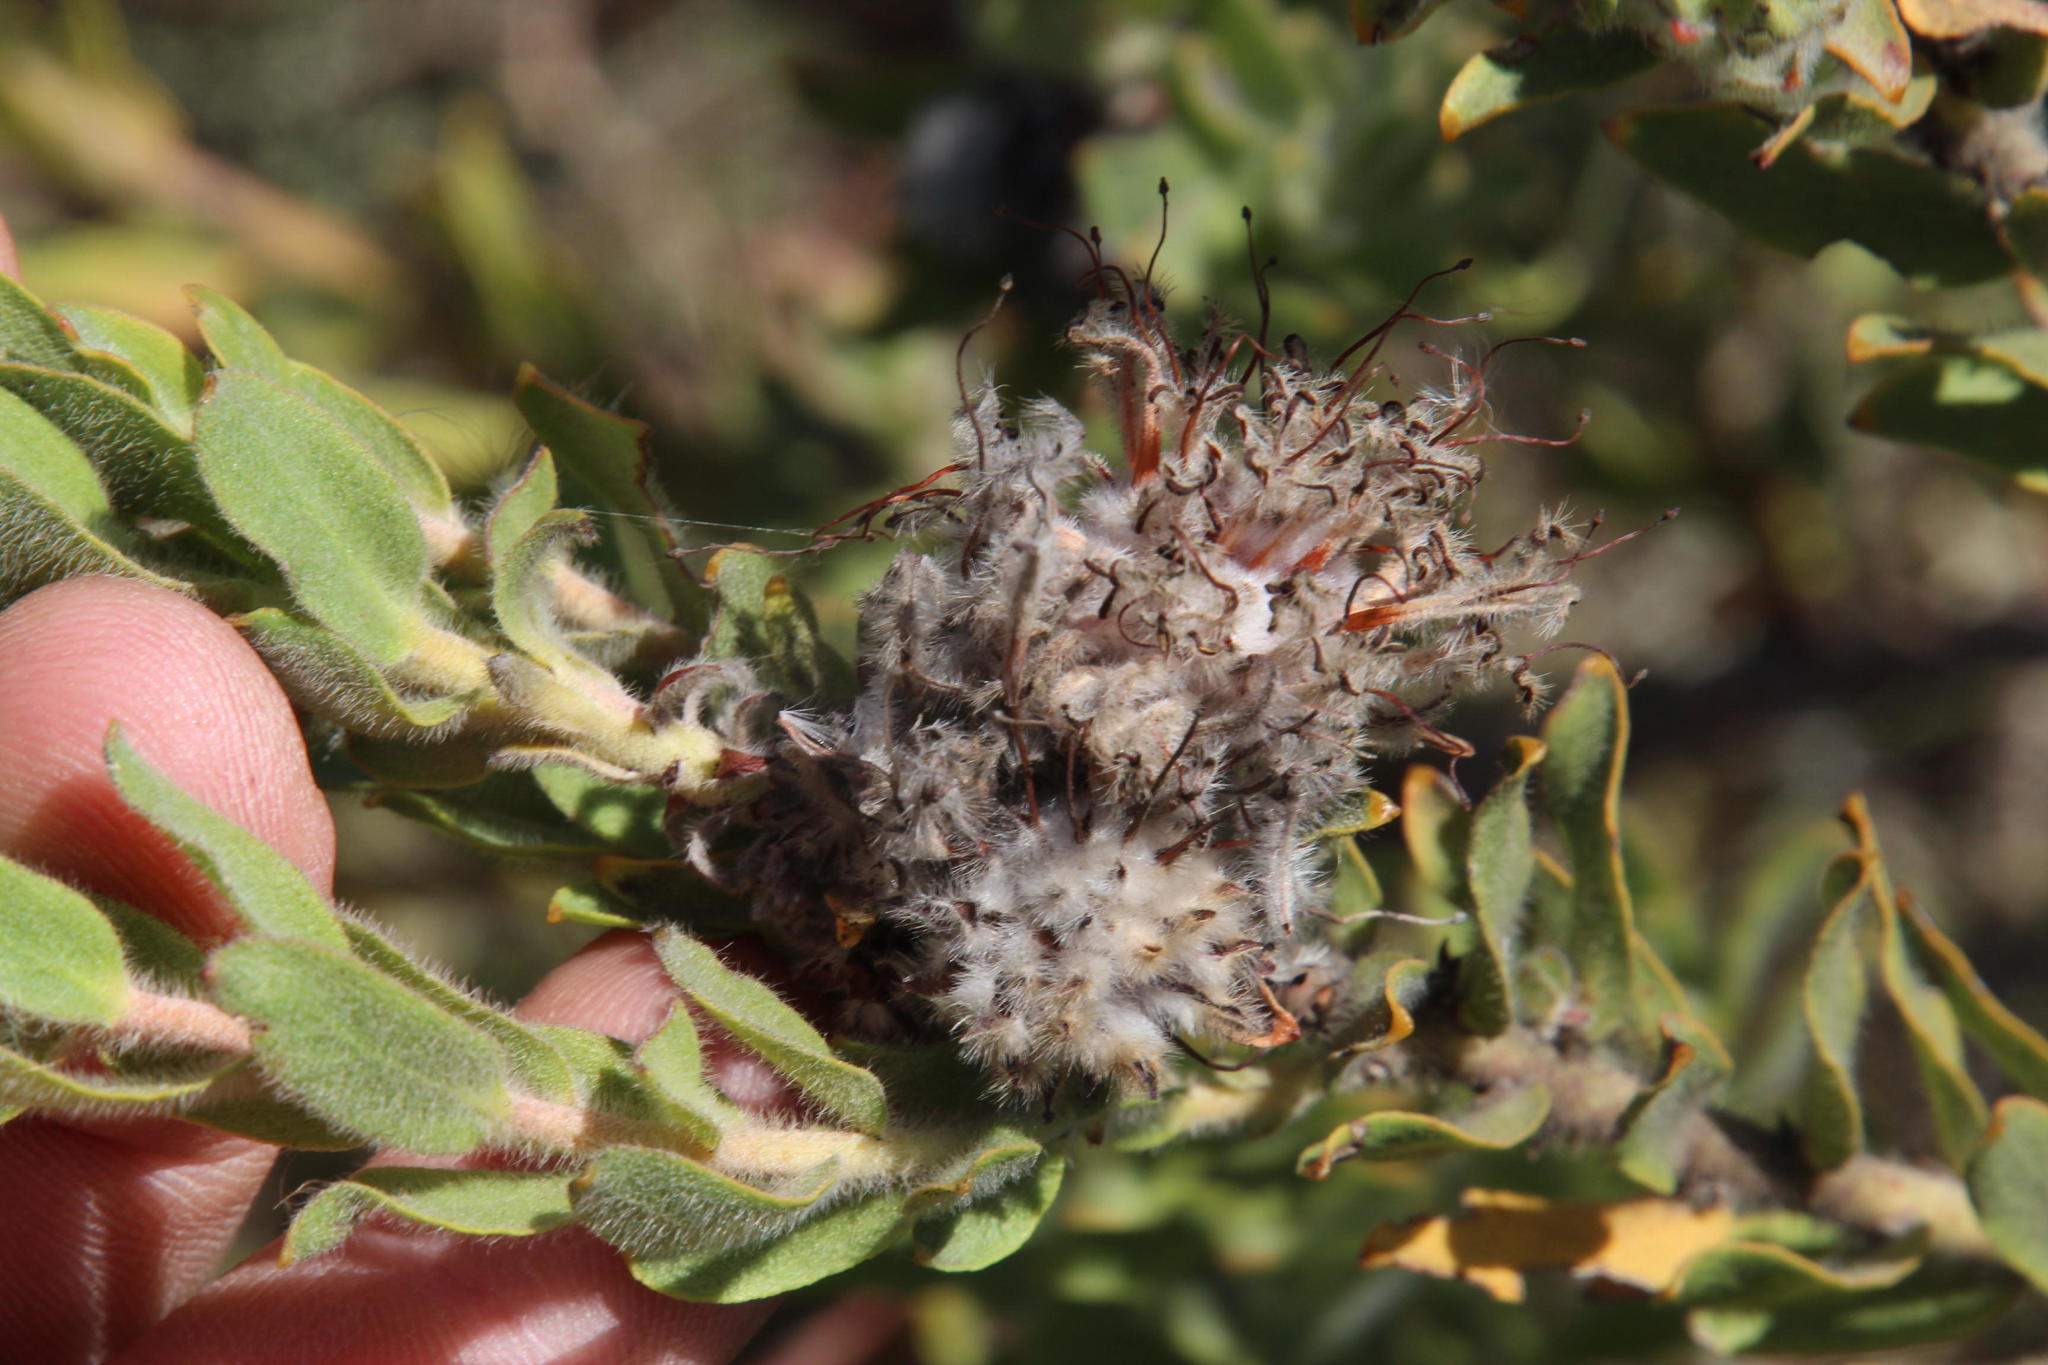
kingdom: Plantae
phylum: Tracheophyta
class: Magnoliopsida
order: Proteales
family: Proteaceae
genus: Leucospermum
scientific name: Leucospermum calligerum
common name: Arid pincushion
